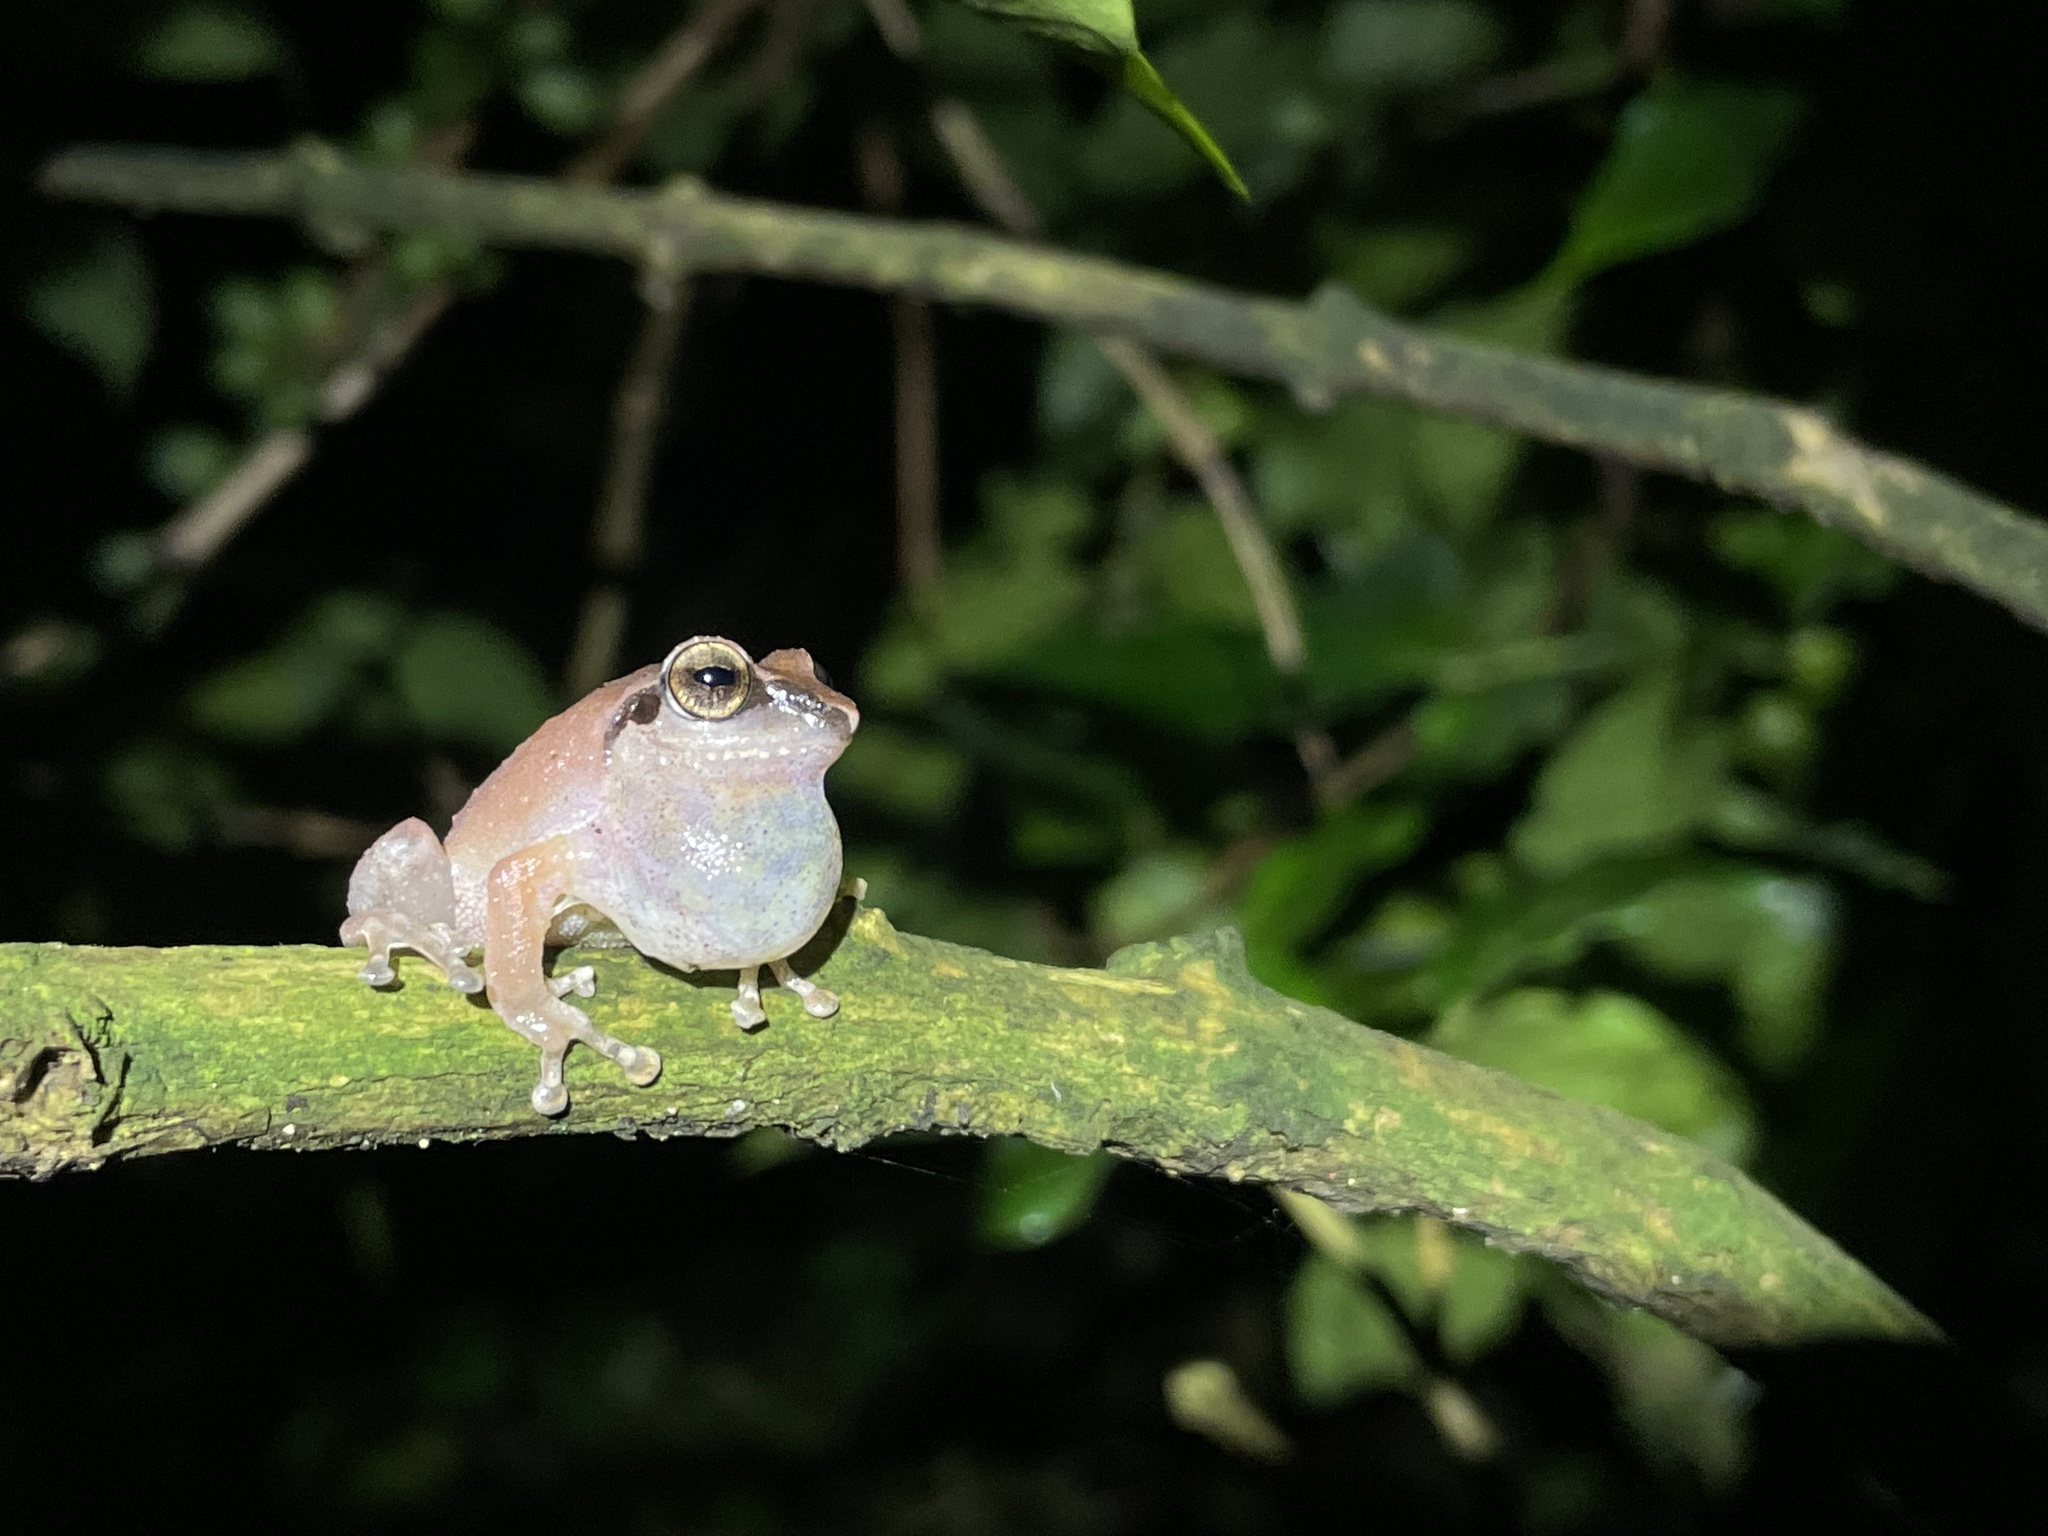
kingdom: Animalia
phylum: Chordata
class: Amphibia
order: Anura
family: Rhacophoridae
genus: Pseudophilautus
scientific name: Pseudophilautus wynaadensis
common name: Dark-eared bush frog
